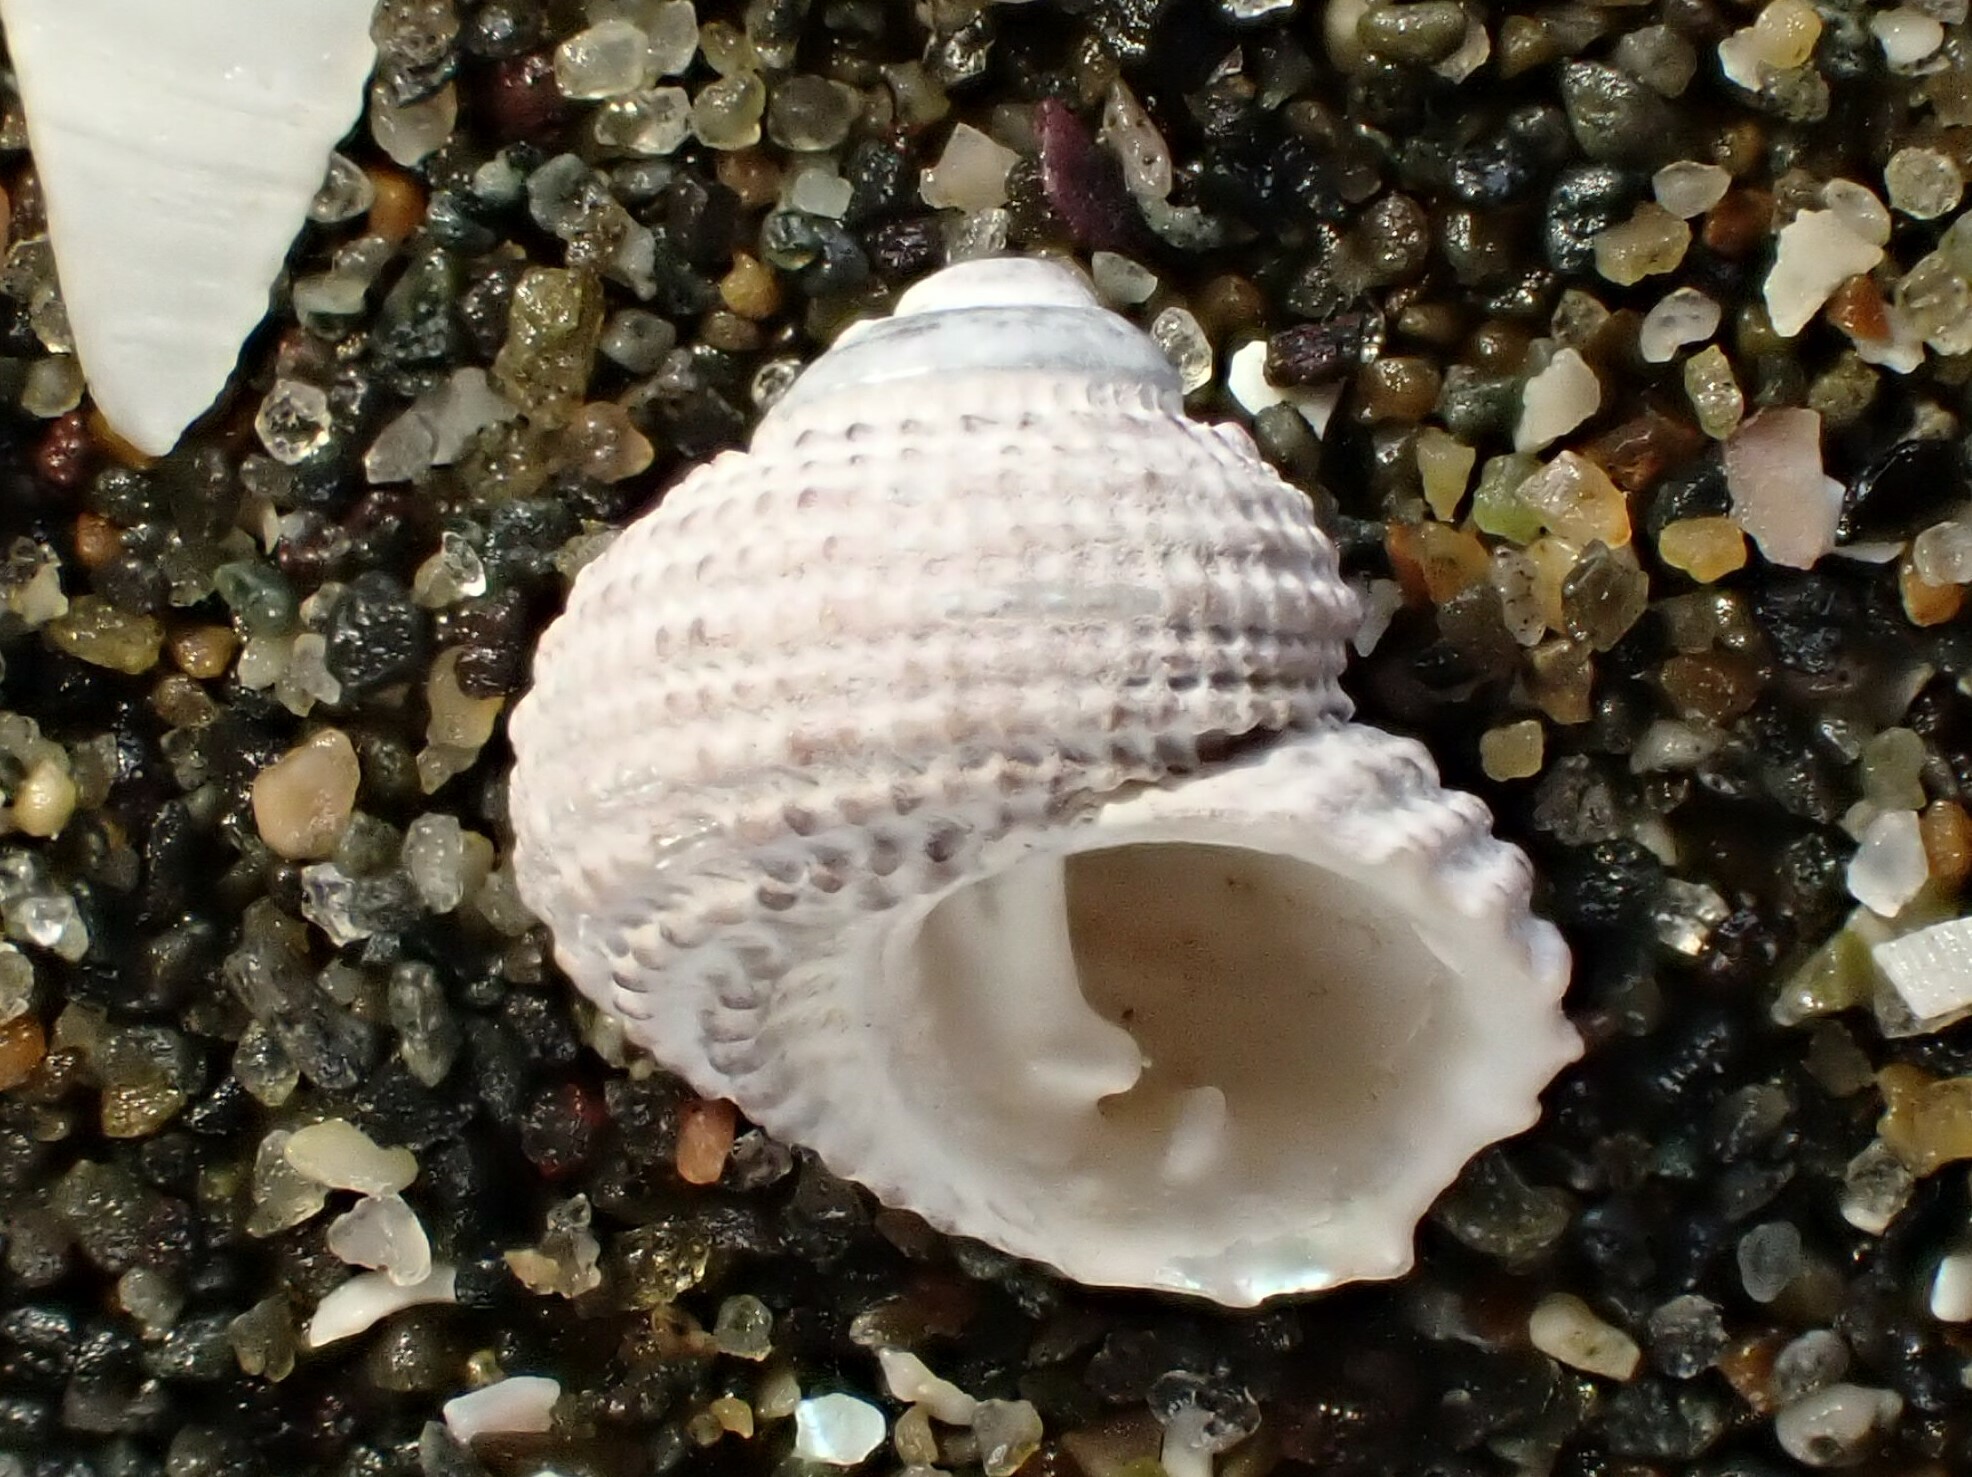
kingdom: Animalia
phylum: Mollusca
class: Gastropoda
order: Seguenziida
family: Chilodontaidae
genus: Herpetopoma
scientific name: Herpetopoma bellum
